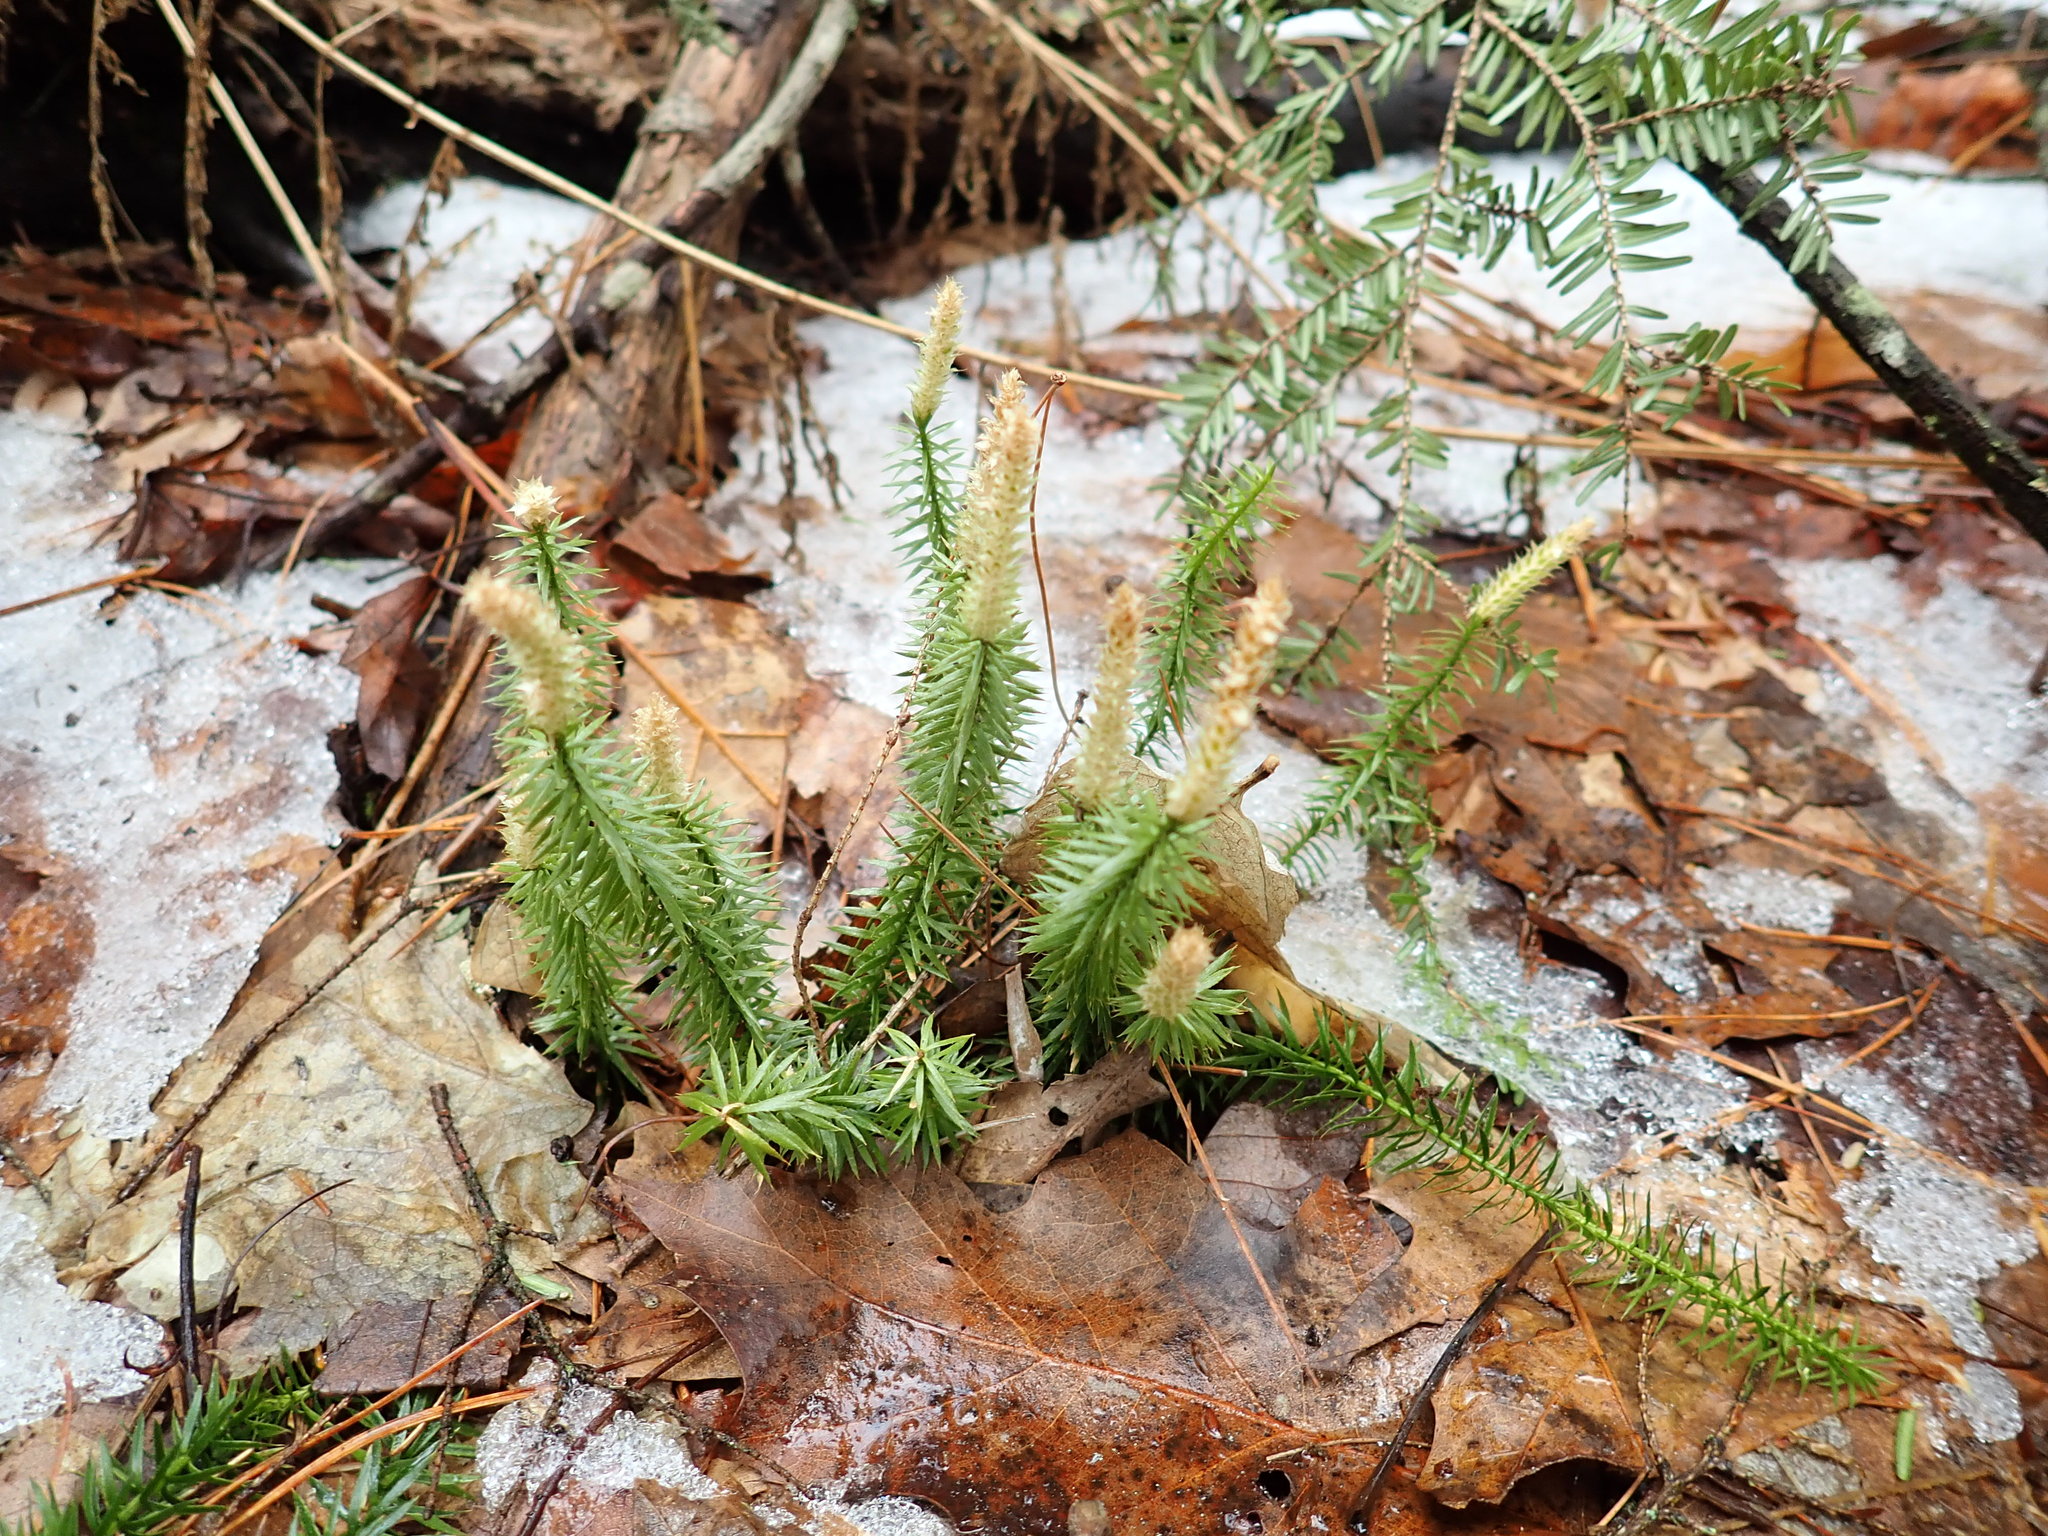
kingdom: Plantae
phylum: Tracheophyta
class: Lycopodiopsida
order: Lycopodiales
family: Lycopodiaceae
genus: Spinulum
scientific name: Spinulum annotinum
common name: Interrupted club-moss
